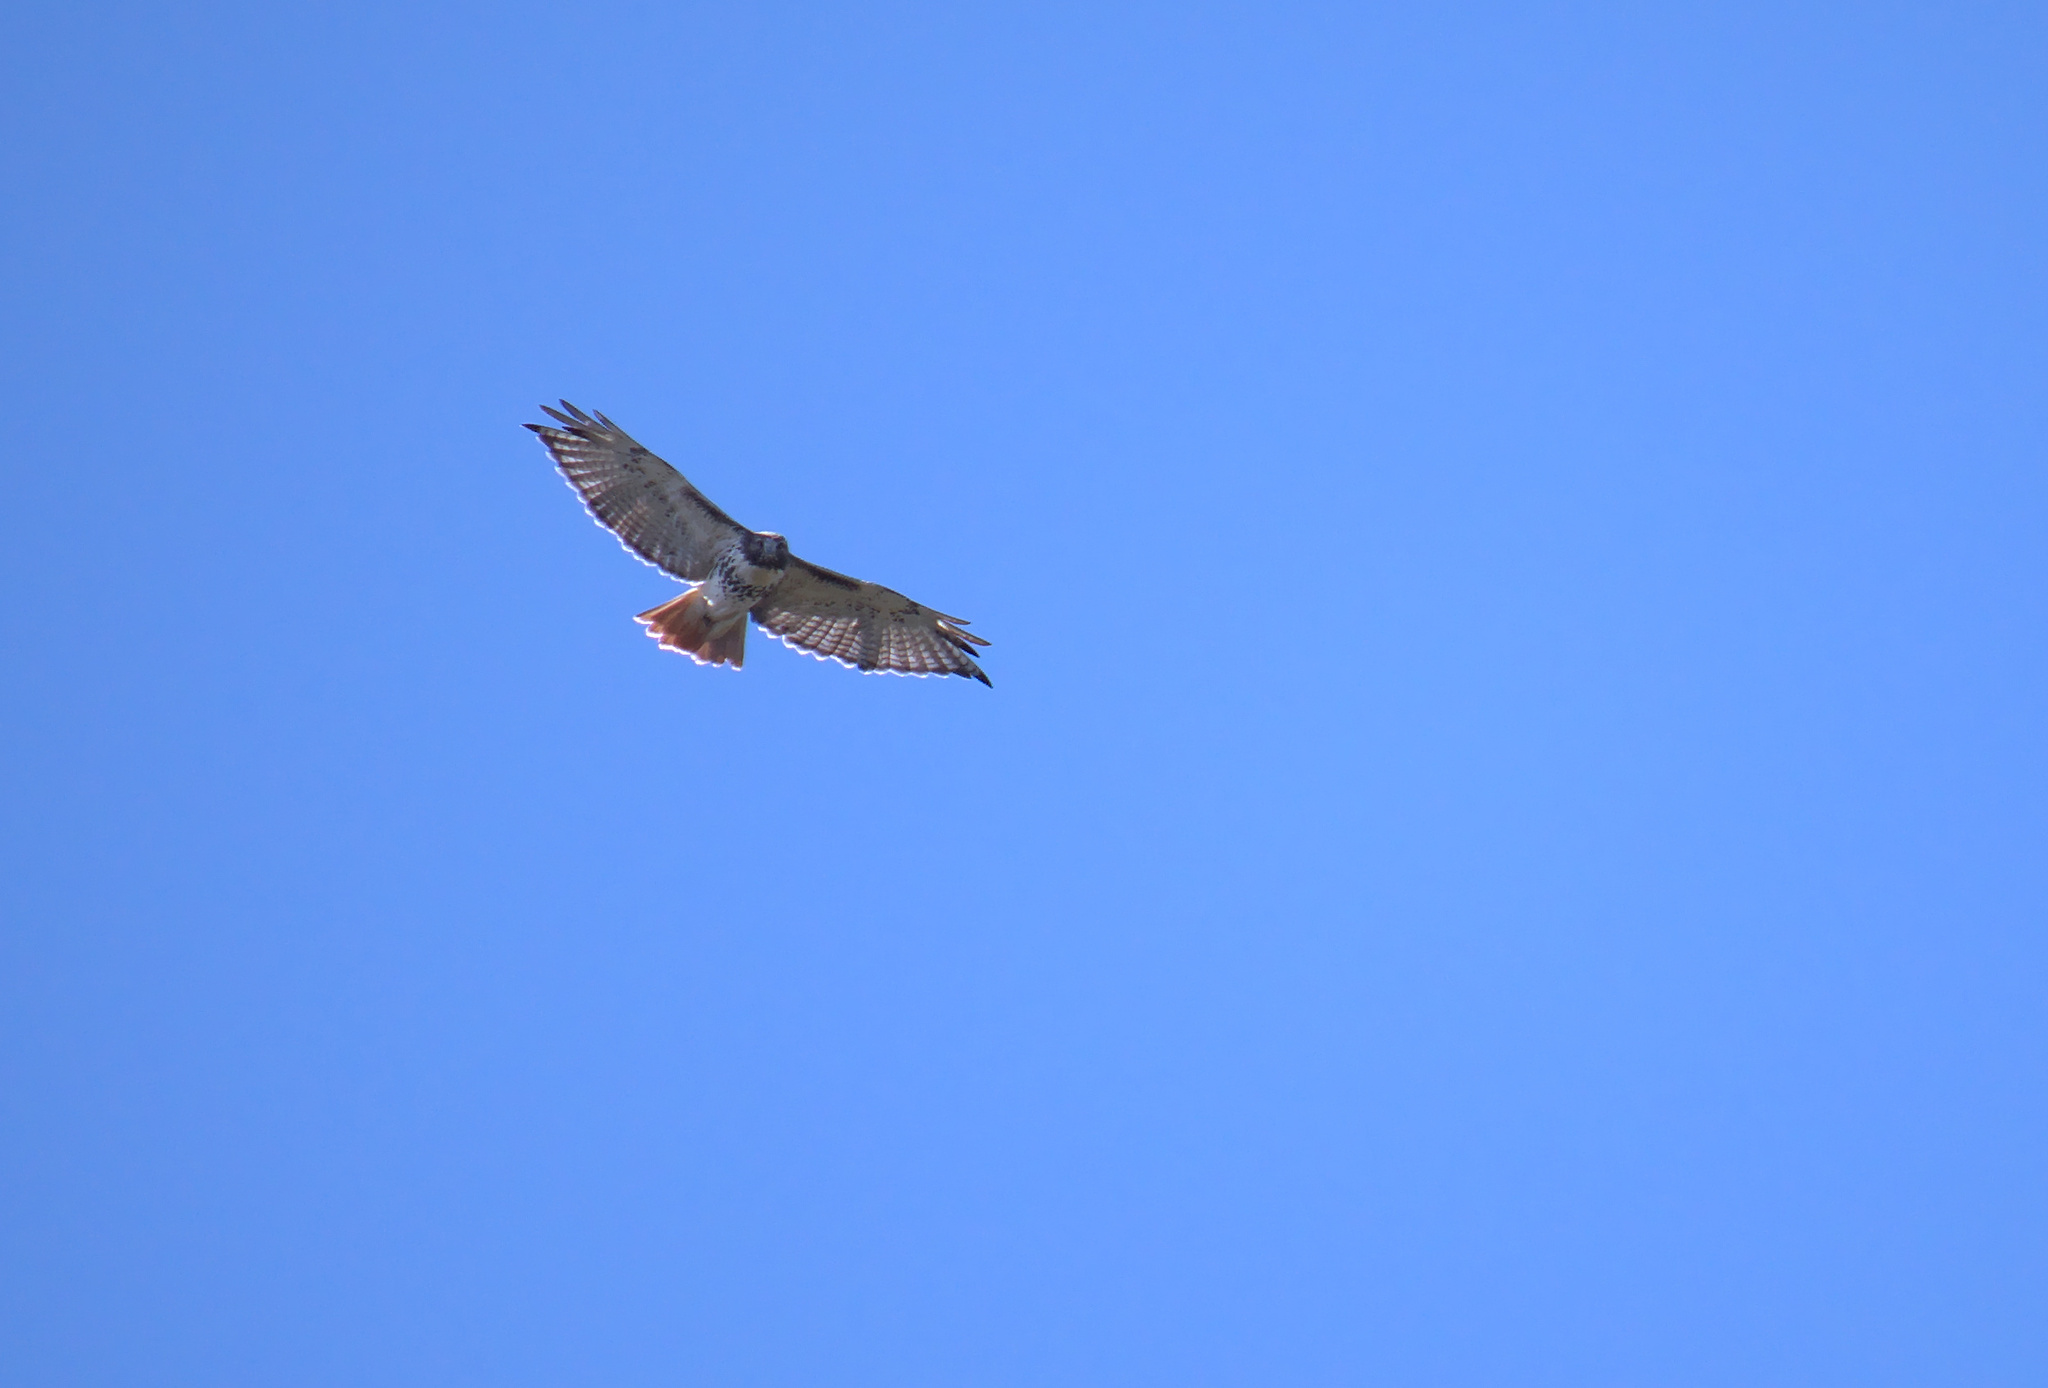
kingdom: Animalia
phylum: Chordata
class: Aves
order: Accipitriformes
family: Accipitridae
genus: Buteo
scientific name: Buteo jamaicensis
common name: Red-tailed hawk
